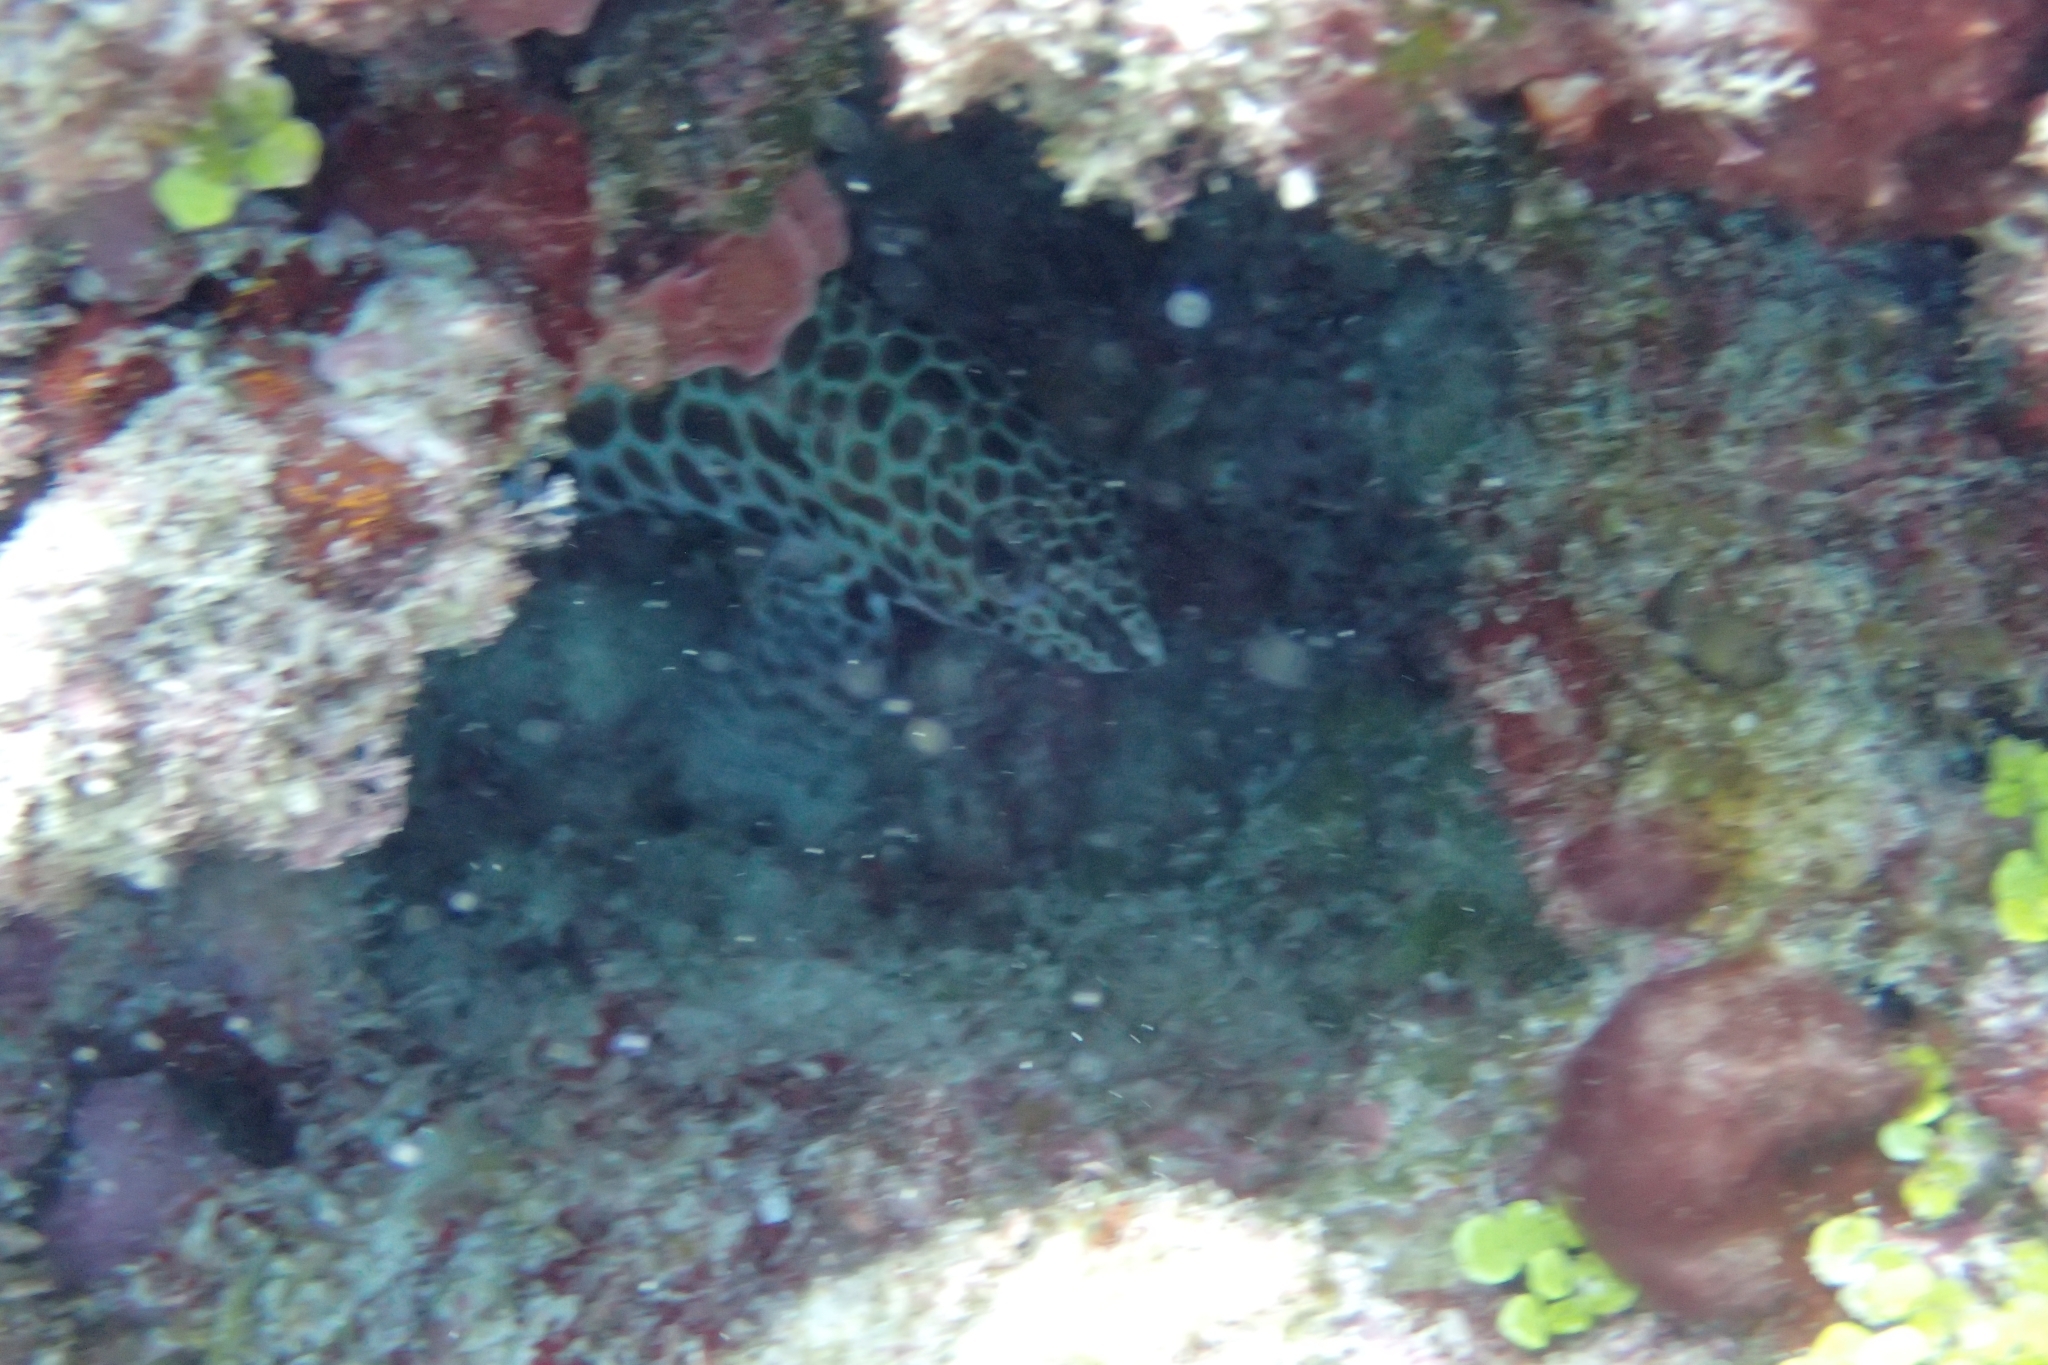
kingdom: Animalia
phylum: Chordata
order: Perciformes
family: Serranidae
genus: Epinephelus
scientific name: Epinephelus merra
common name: Honeycomb grouper
